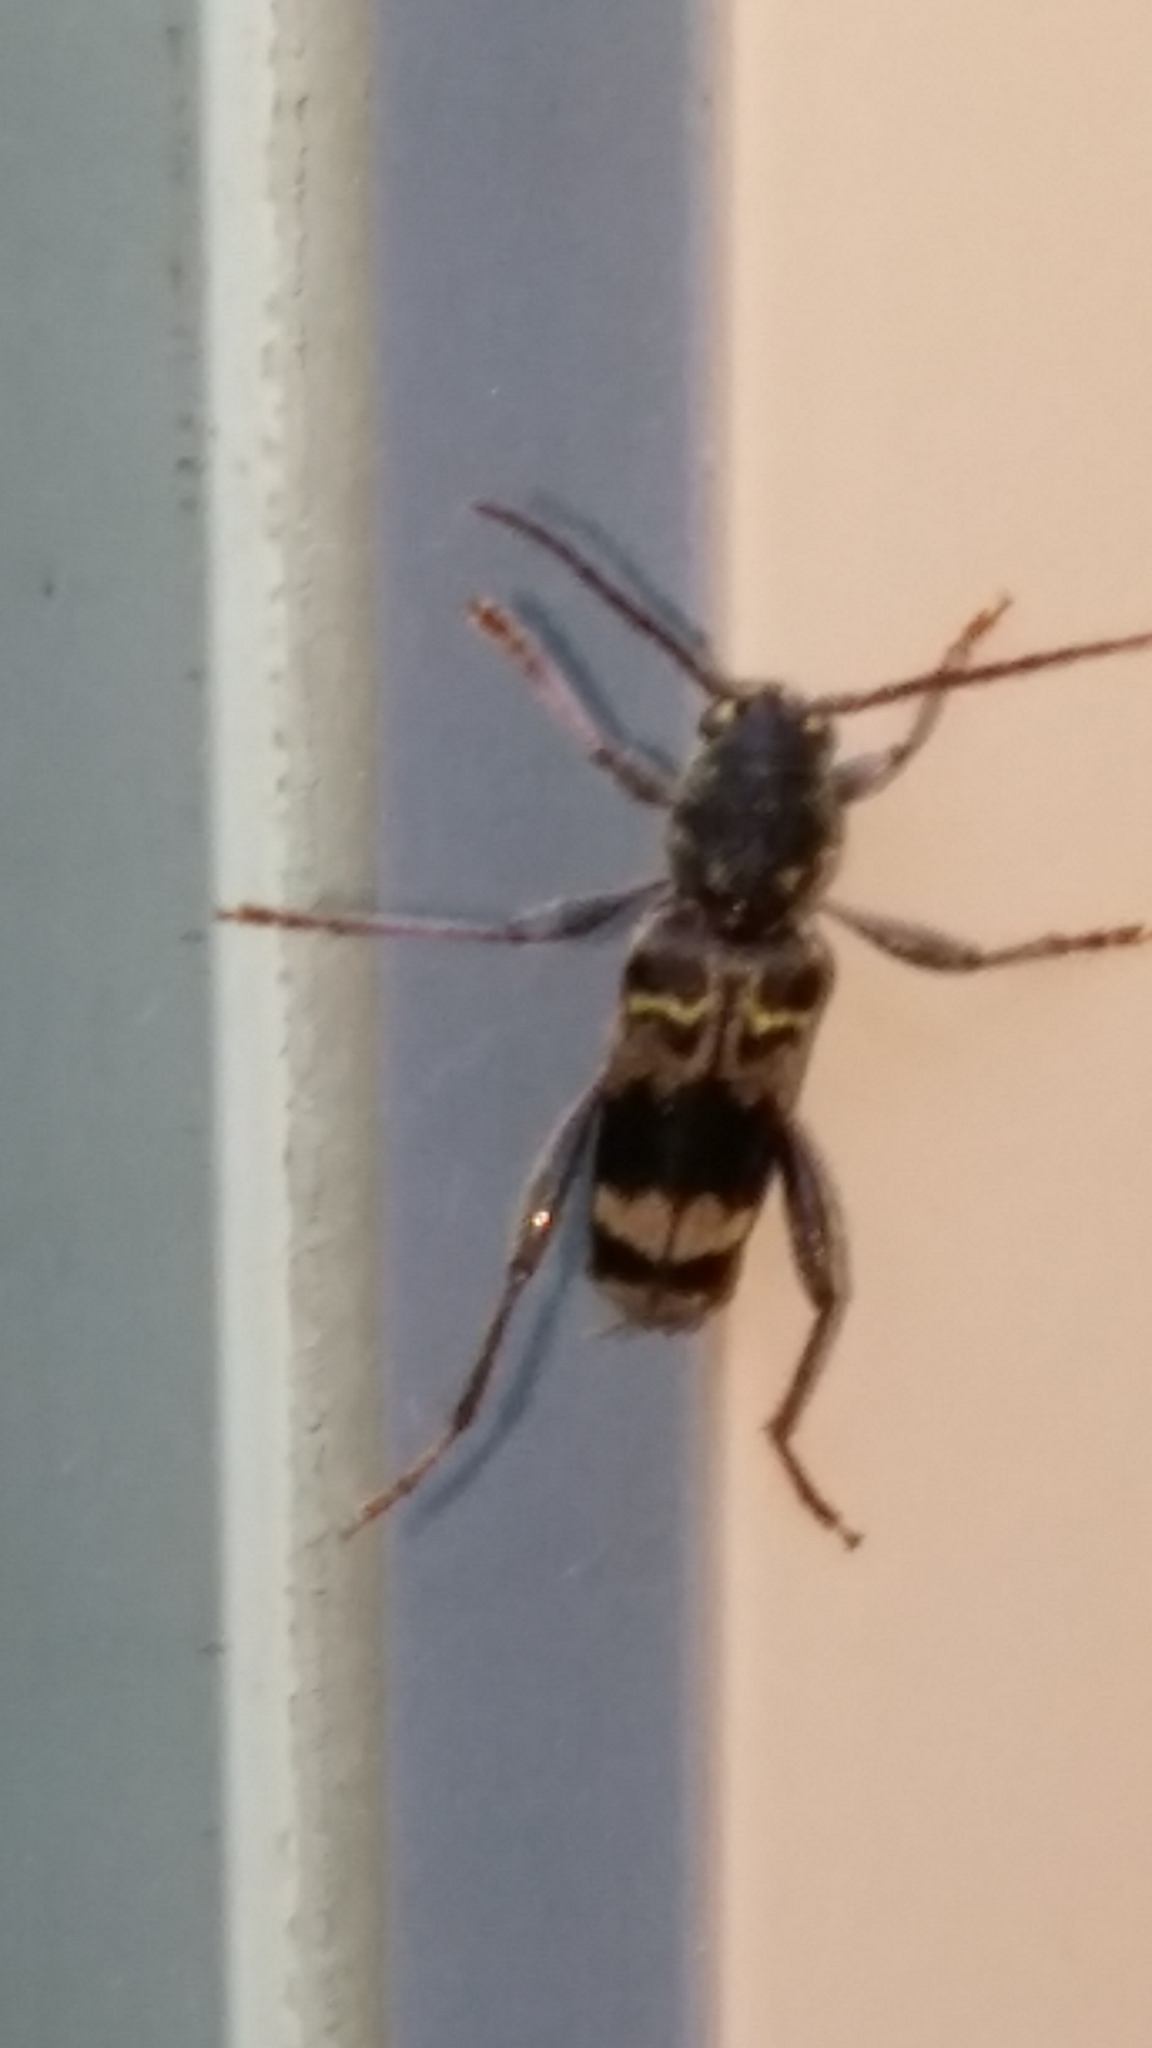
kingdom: Animalia
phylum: Arthropoda
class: Insecta
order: Coleoptera
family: Cerambycidae
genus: Xylotrechus
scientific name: Xylotrechus colonus
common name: Long-horned beetle
